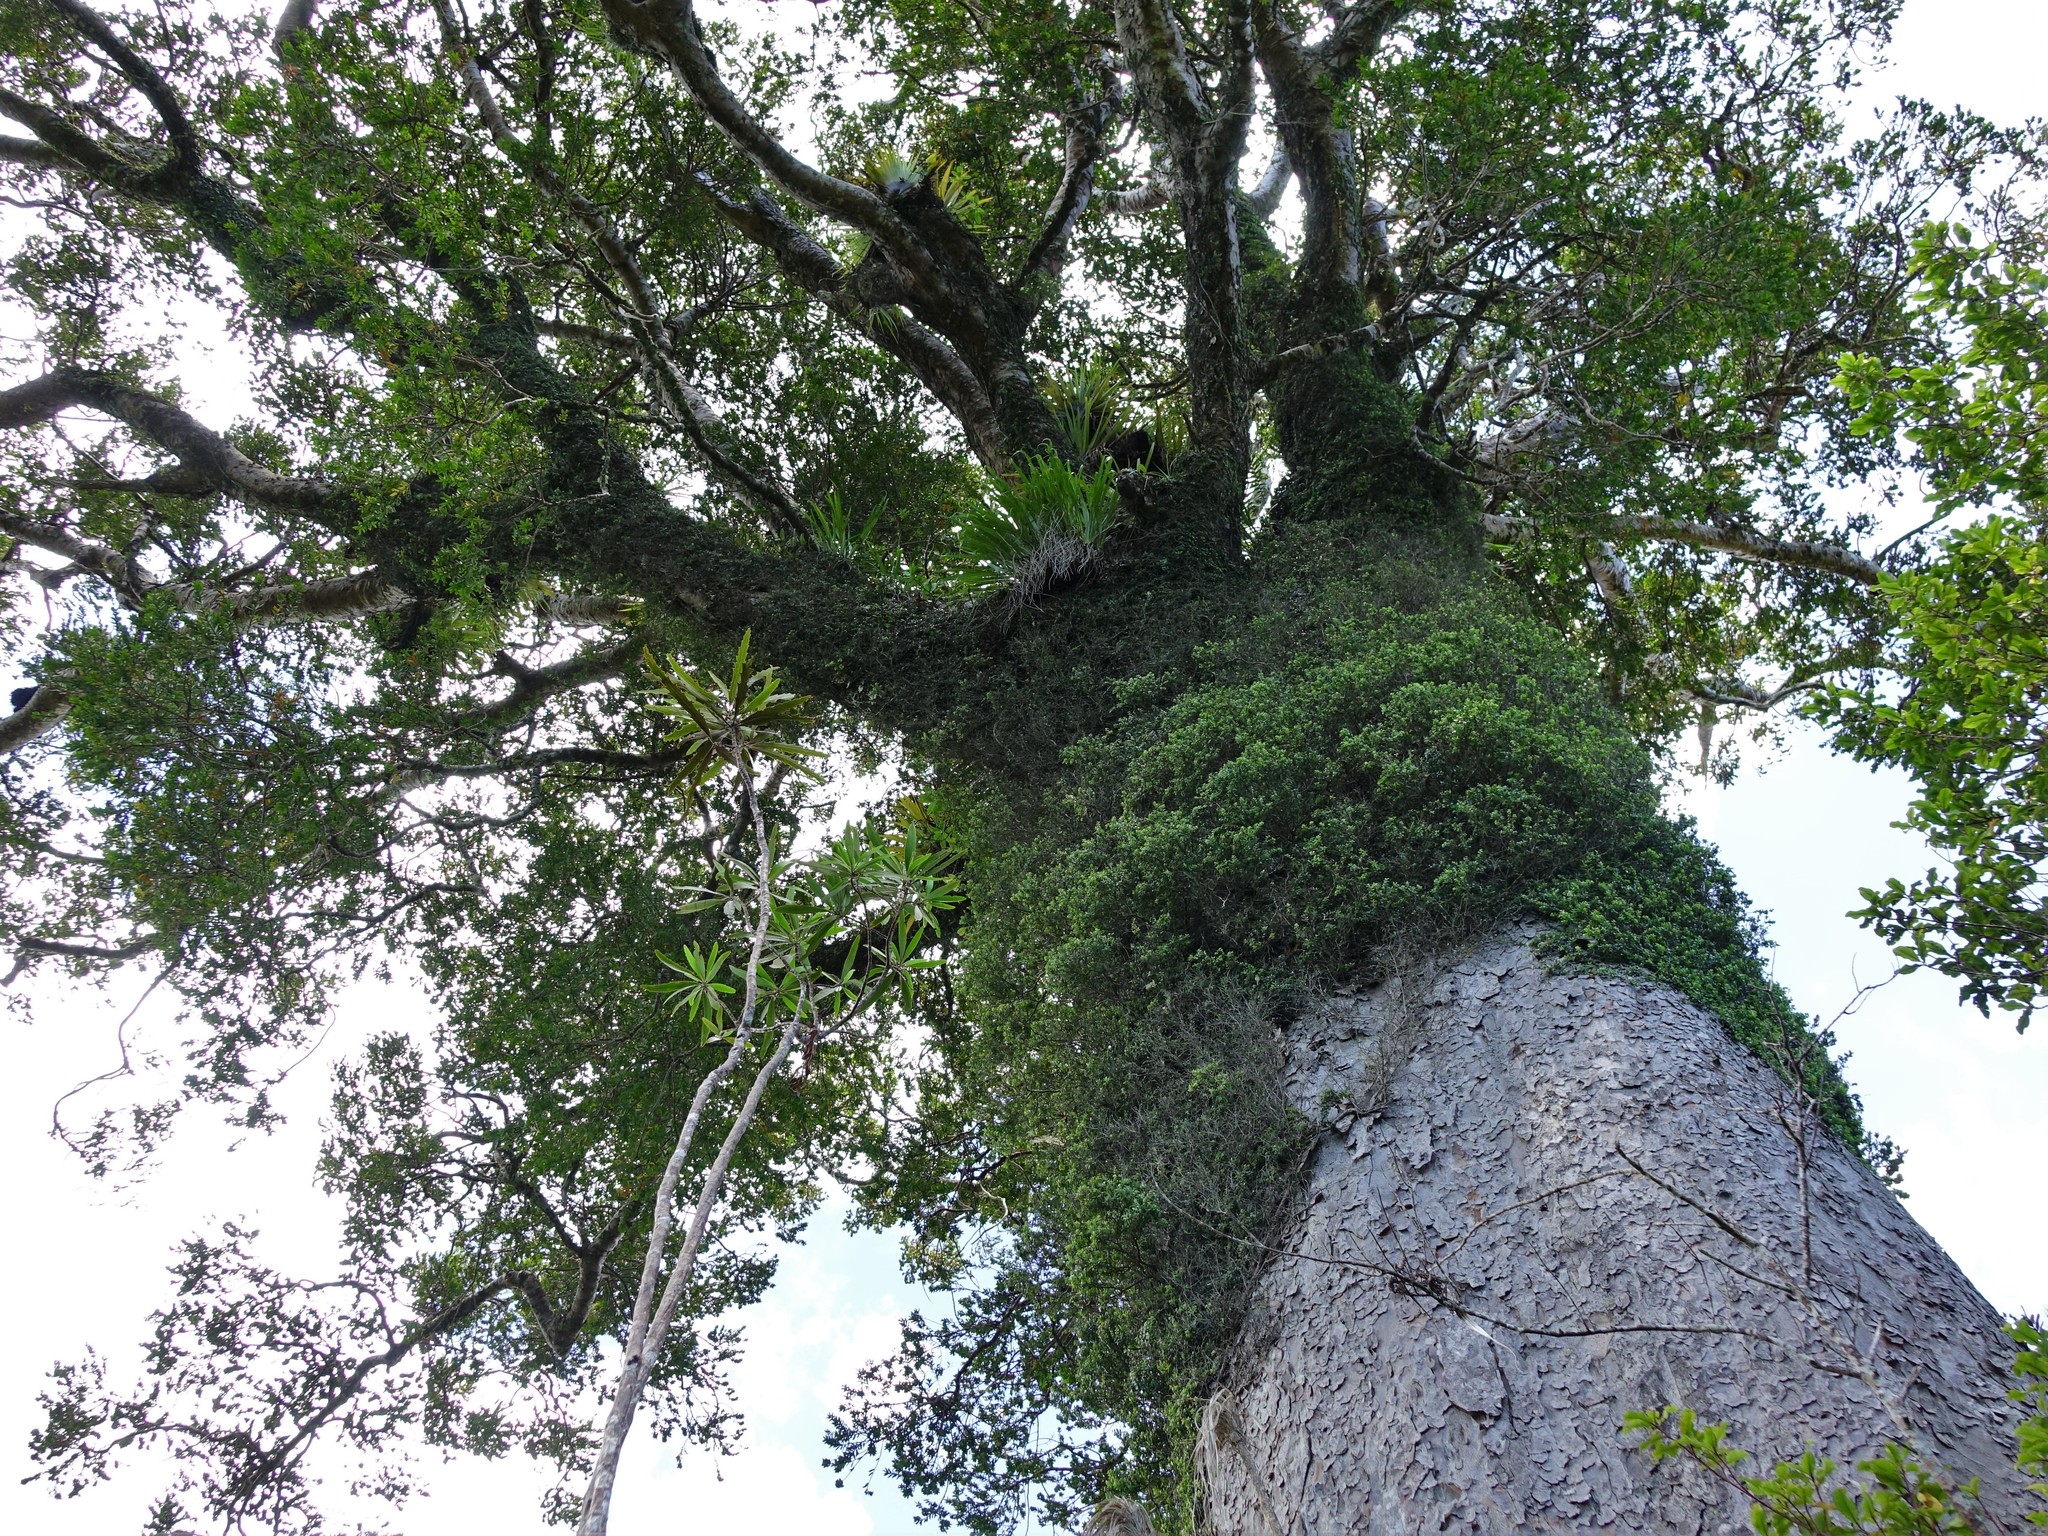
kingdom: Plantae
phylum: Tracheophyta
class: Pinopsida
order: Pinales
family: Araucariaceae
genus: Agathis
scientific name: Agathis australis
